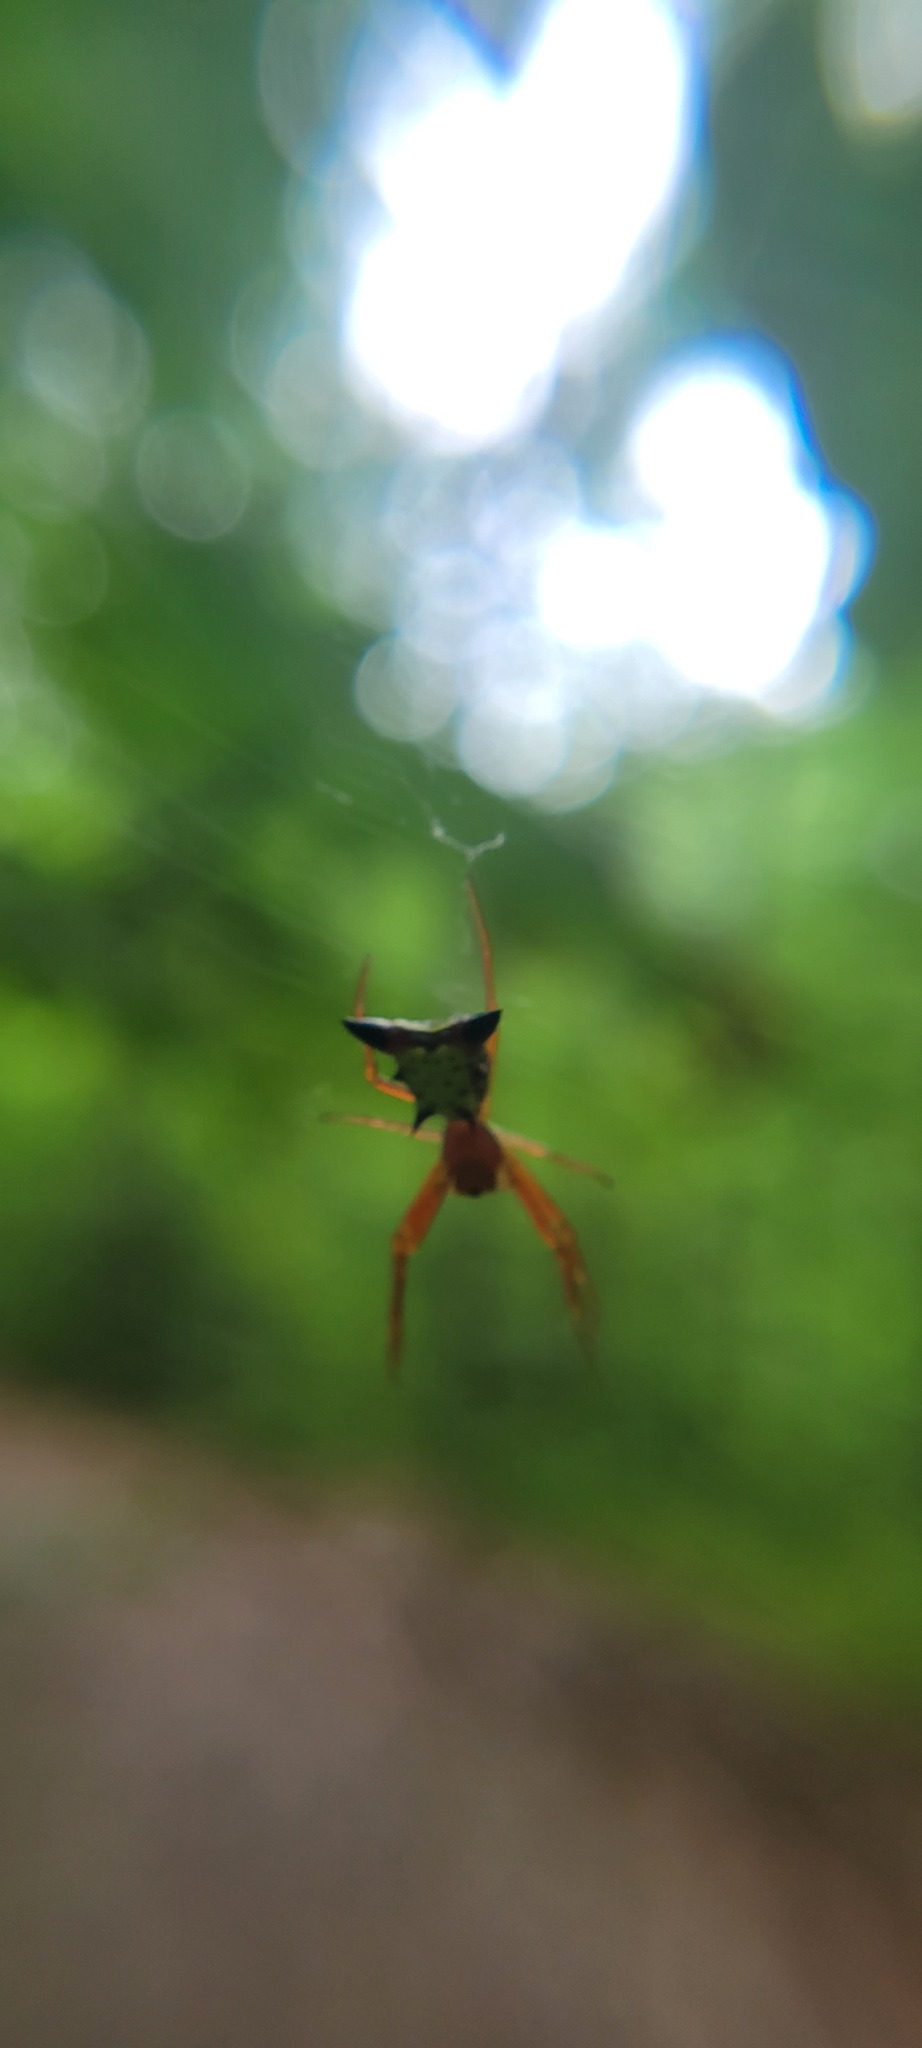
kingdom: Animalia
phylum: Arthropoda
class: Arachnida
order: Araneae
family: Araneidae
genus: Micrathena
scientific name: Micrathena sagittata
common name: Orb weavers
